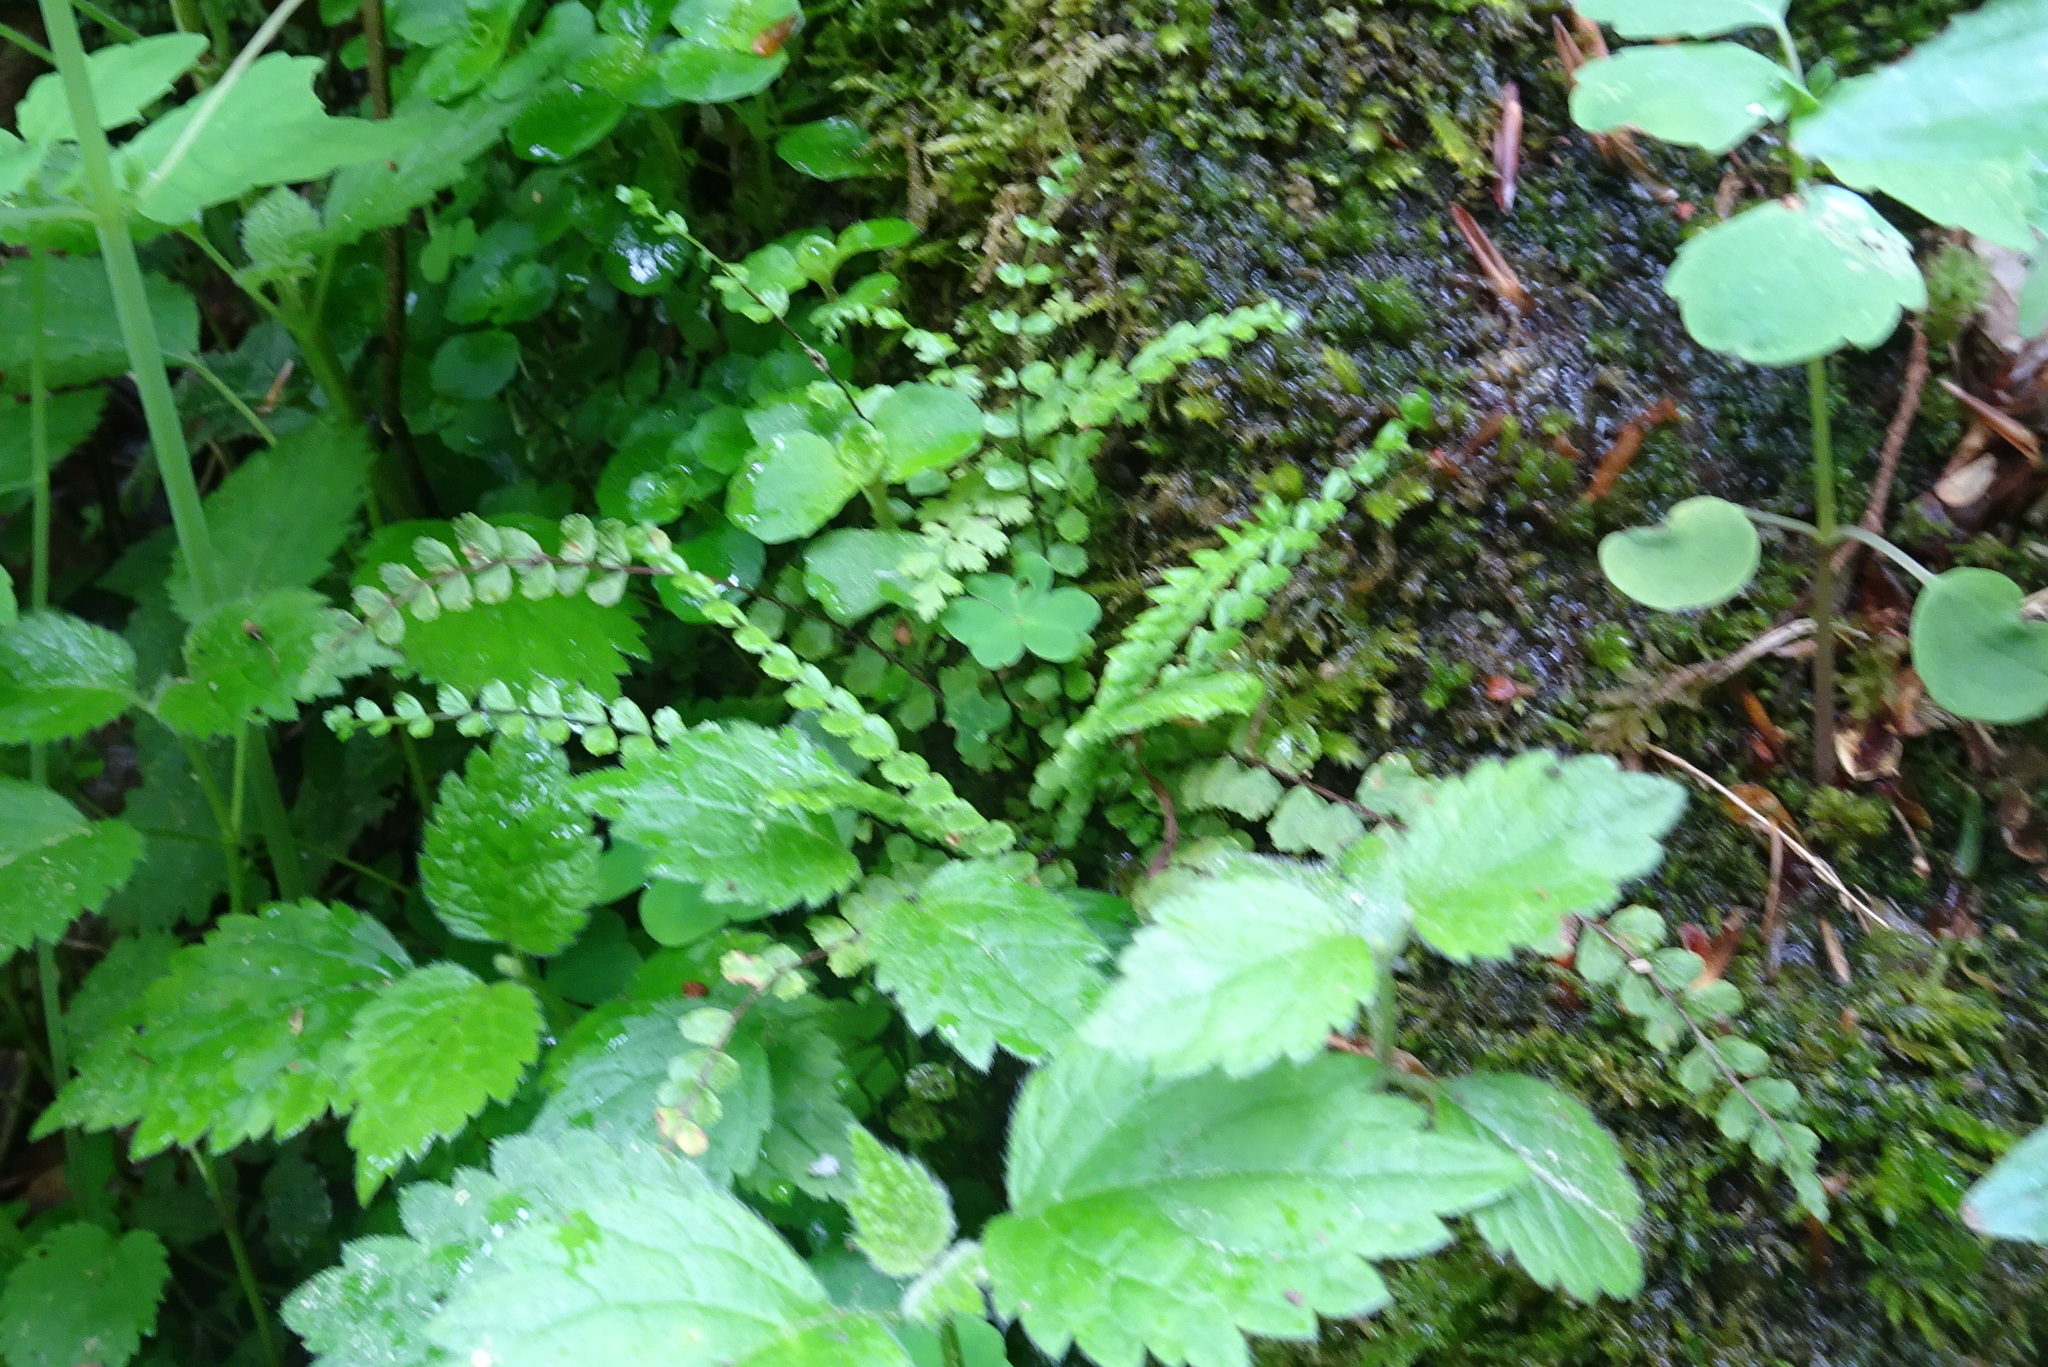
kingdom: Plantae
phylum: Tracheophyta
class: Polypodiopsida
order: Polypodiales
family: Aspleniaceae
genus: Asplenium
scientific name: Asplenium trichomanes
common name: Maidenhair spleenwort
